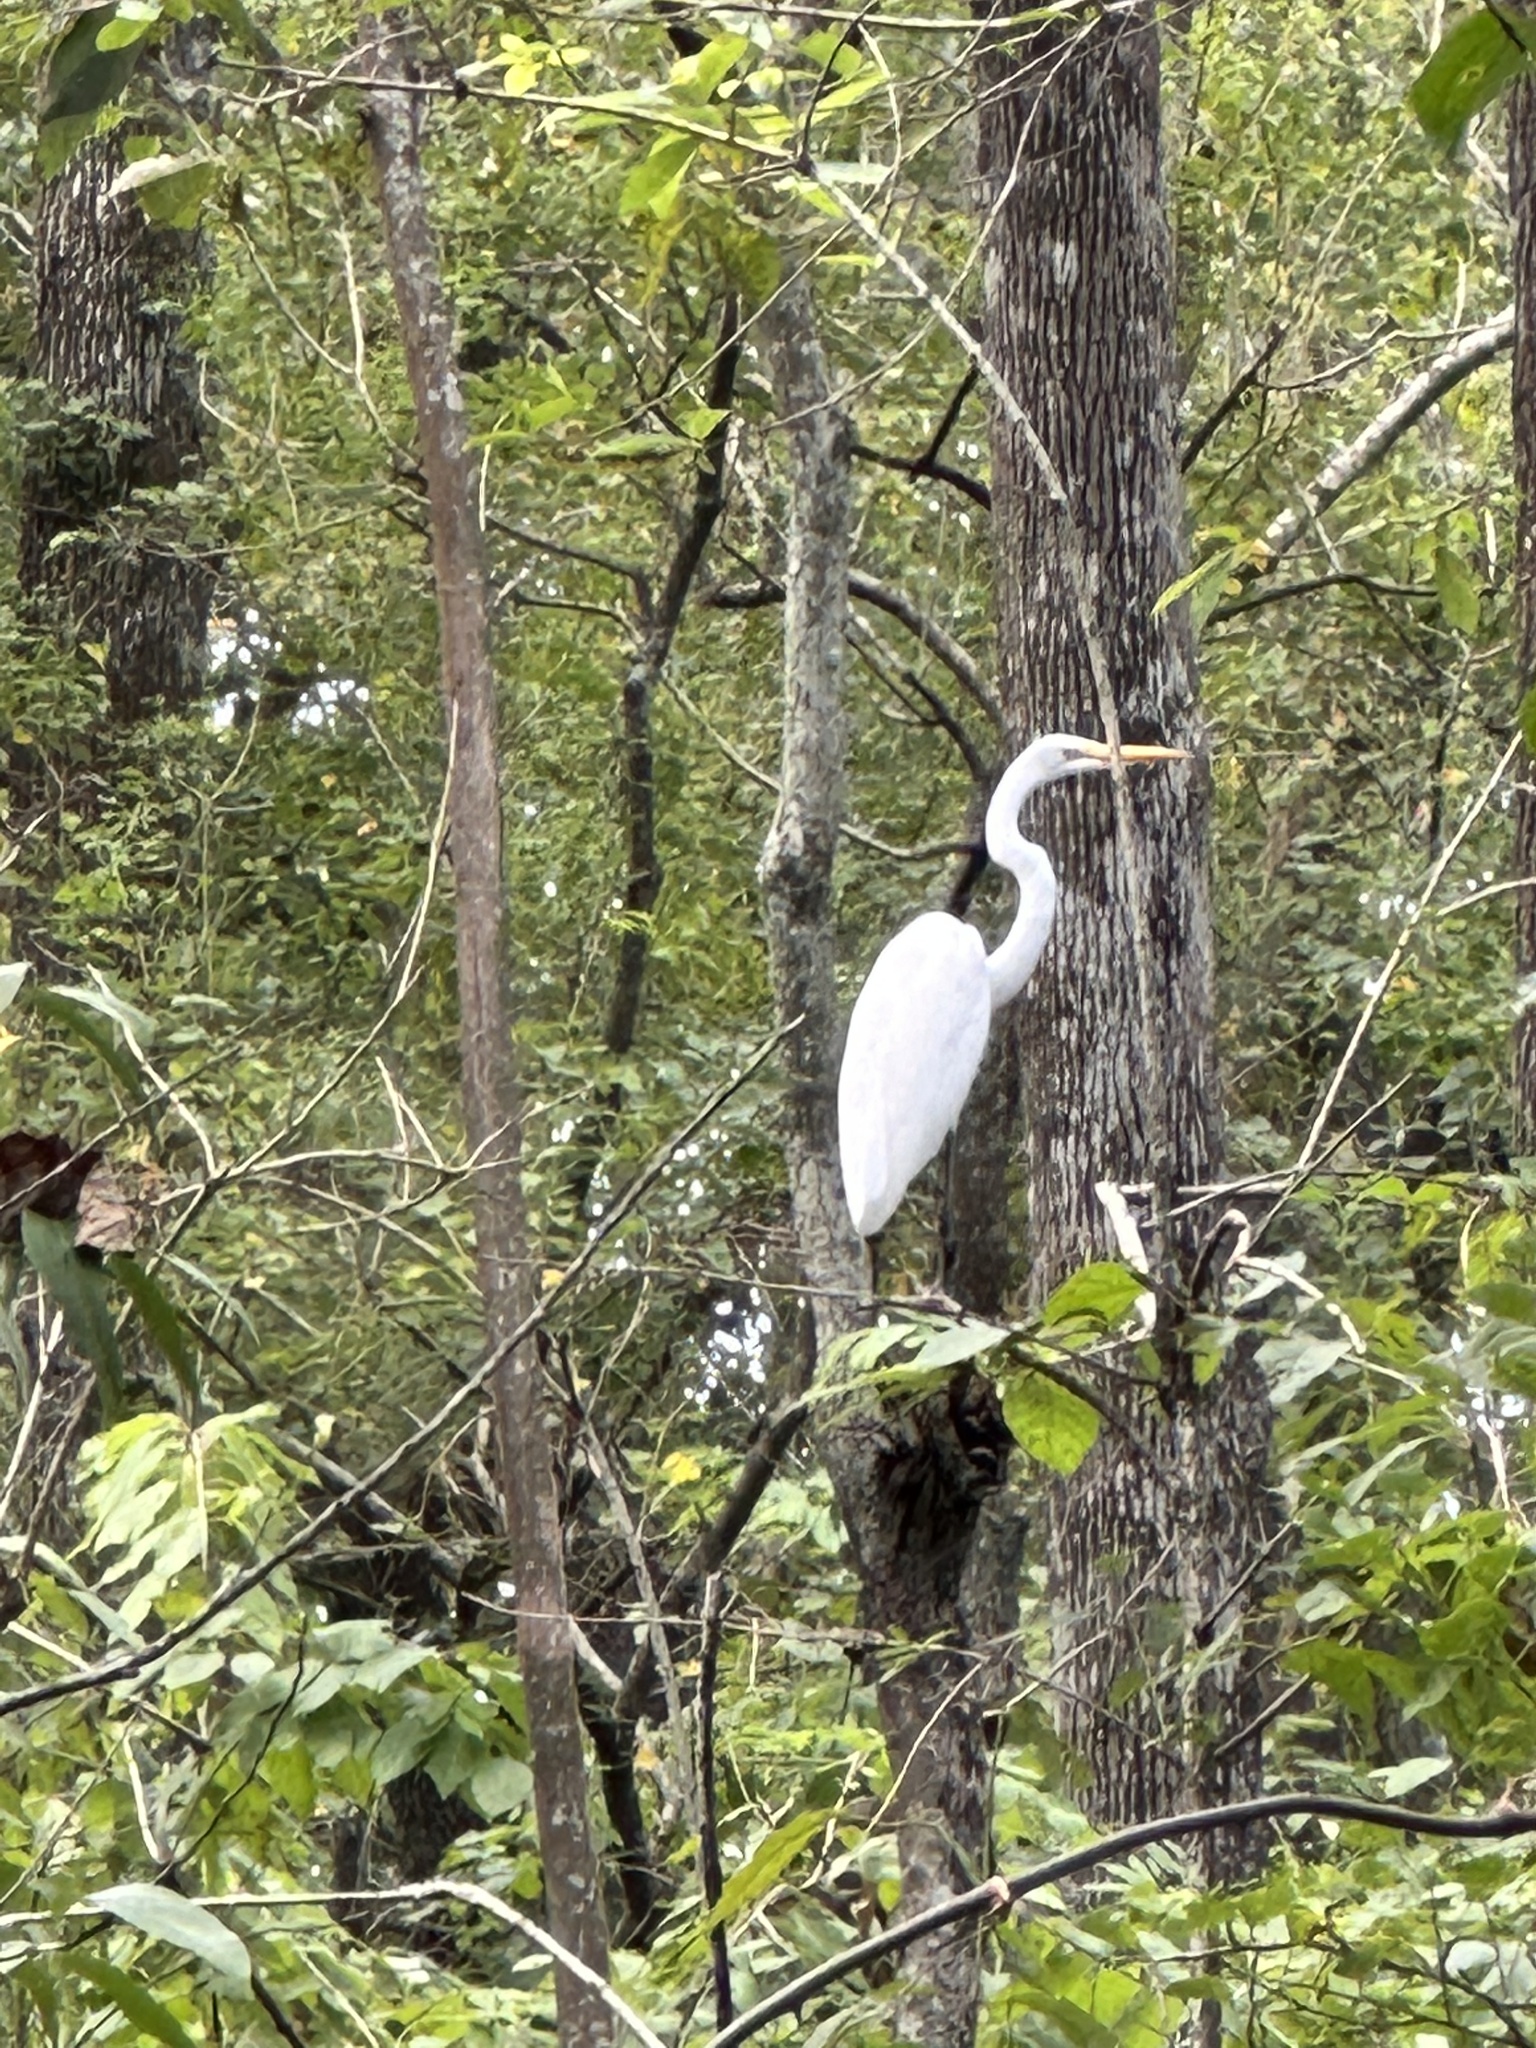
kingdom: Animalia
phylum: Chordata
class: Aves
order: Pelecaniformes
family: Ardeidae
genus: Ardea
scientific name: Ardea alba
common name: Great egret
